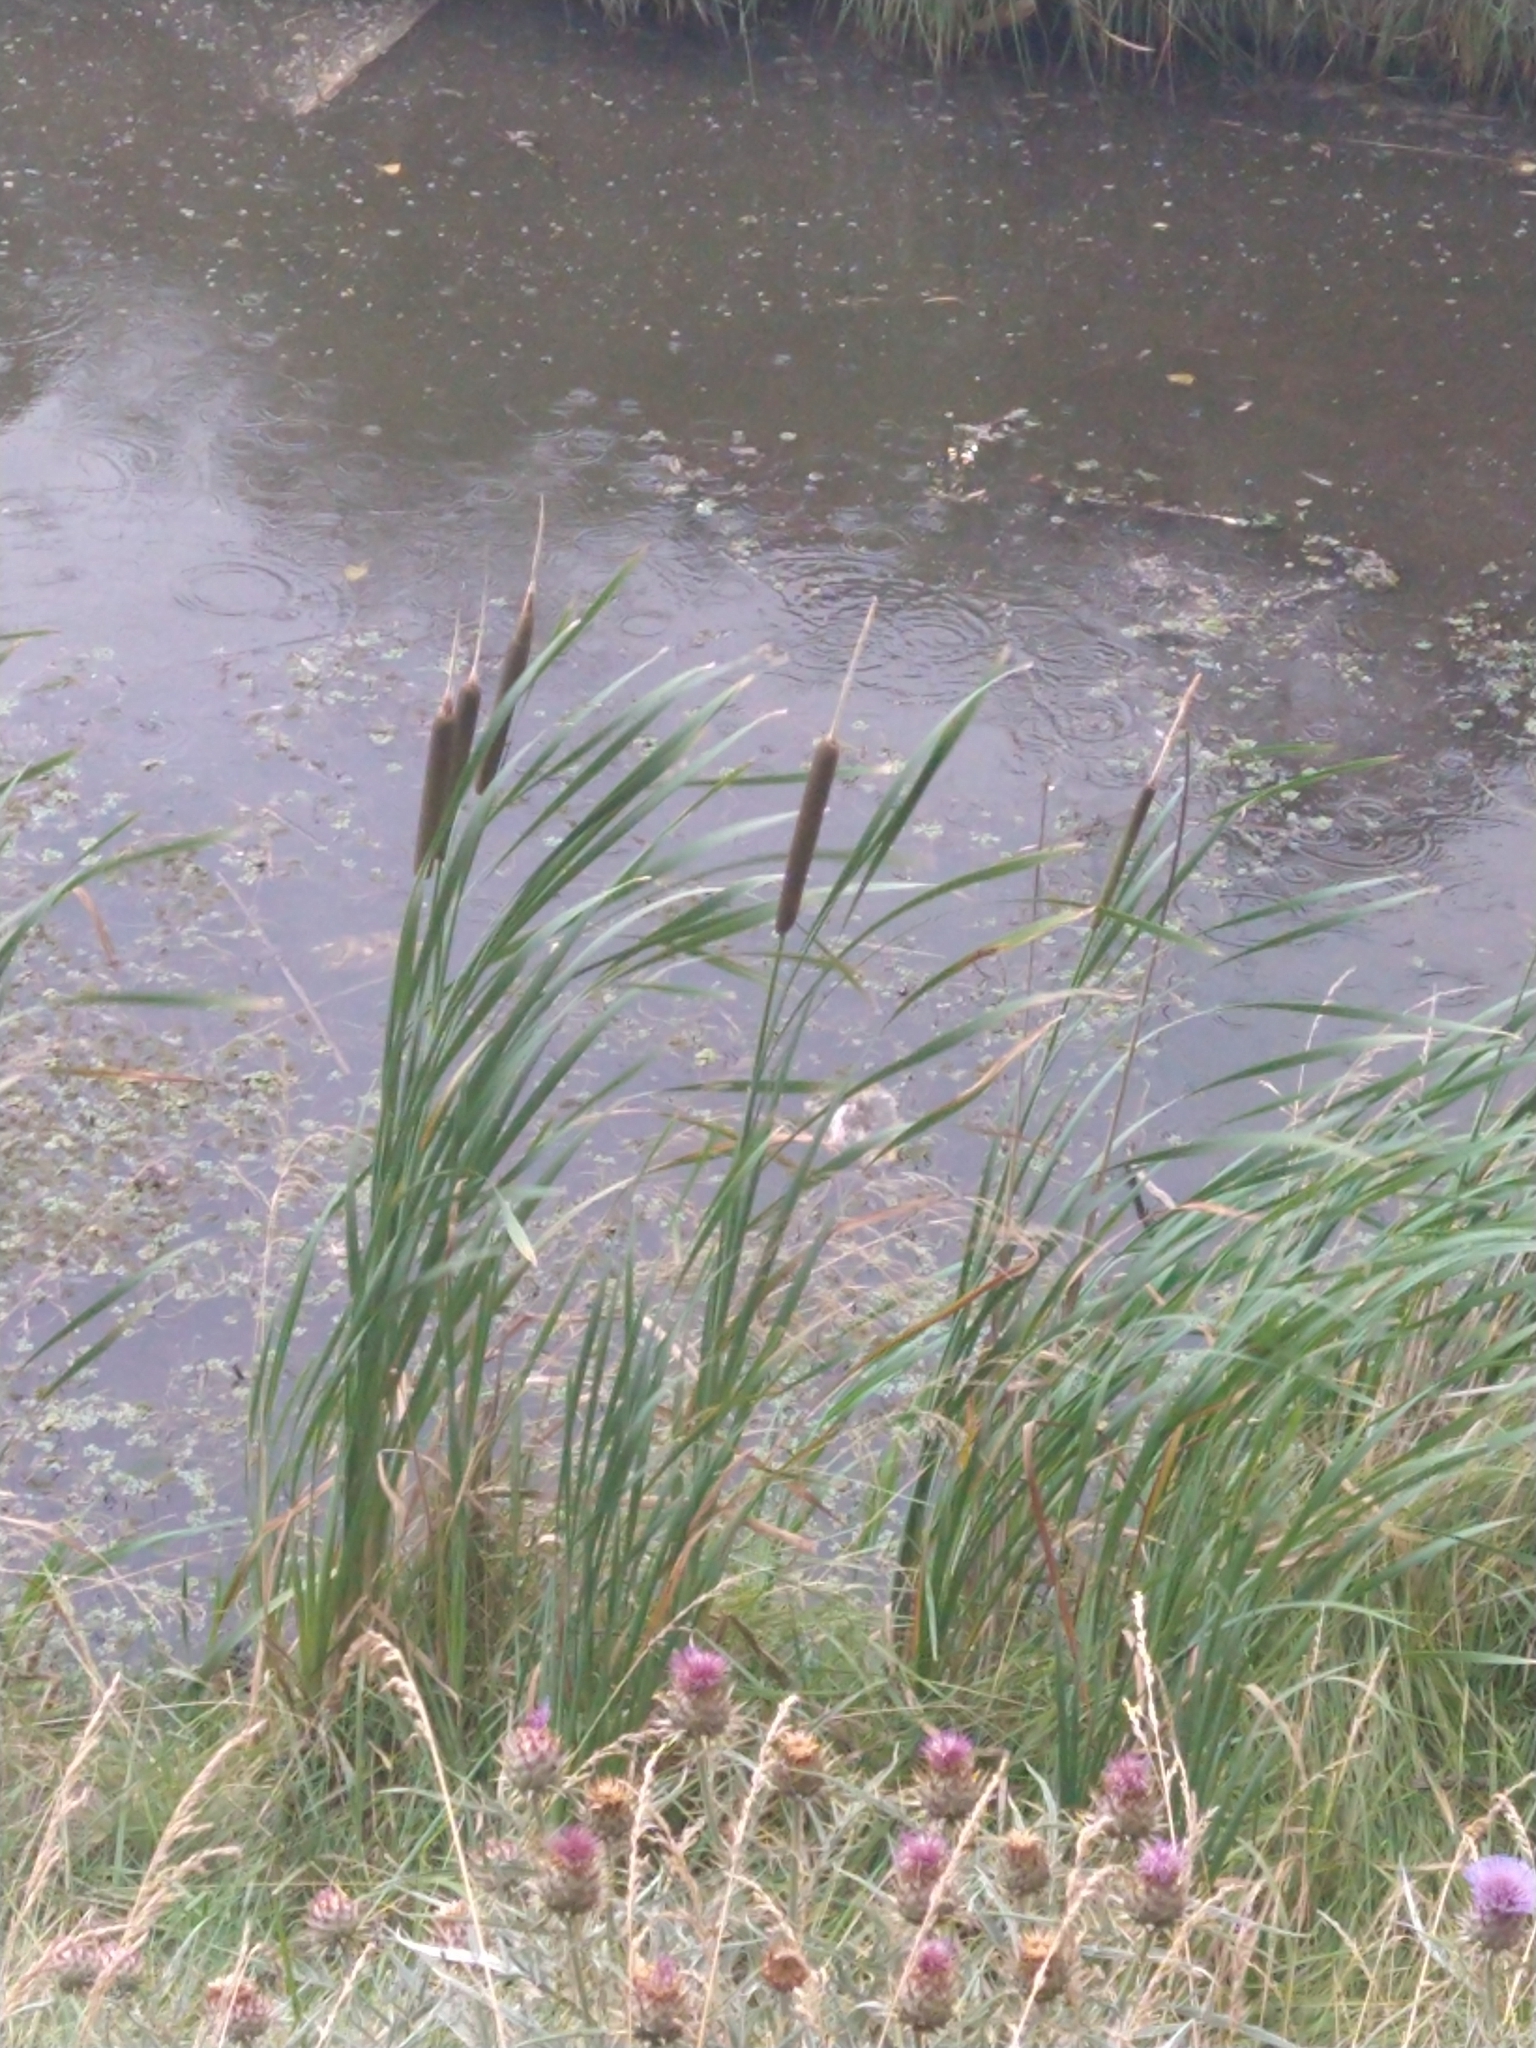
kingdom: Plantae
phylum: Tracheophyta
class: Liliopsida
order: Poales
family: Typhaceae
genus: Typha
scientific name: Typha latifolia
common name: Broadleaf cattail
